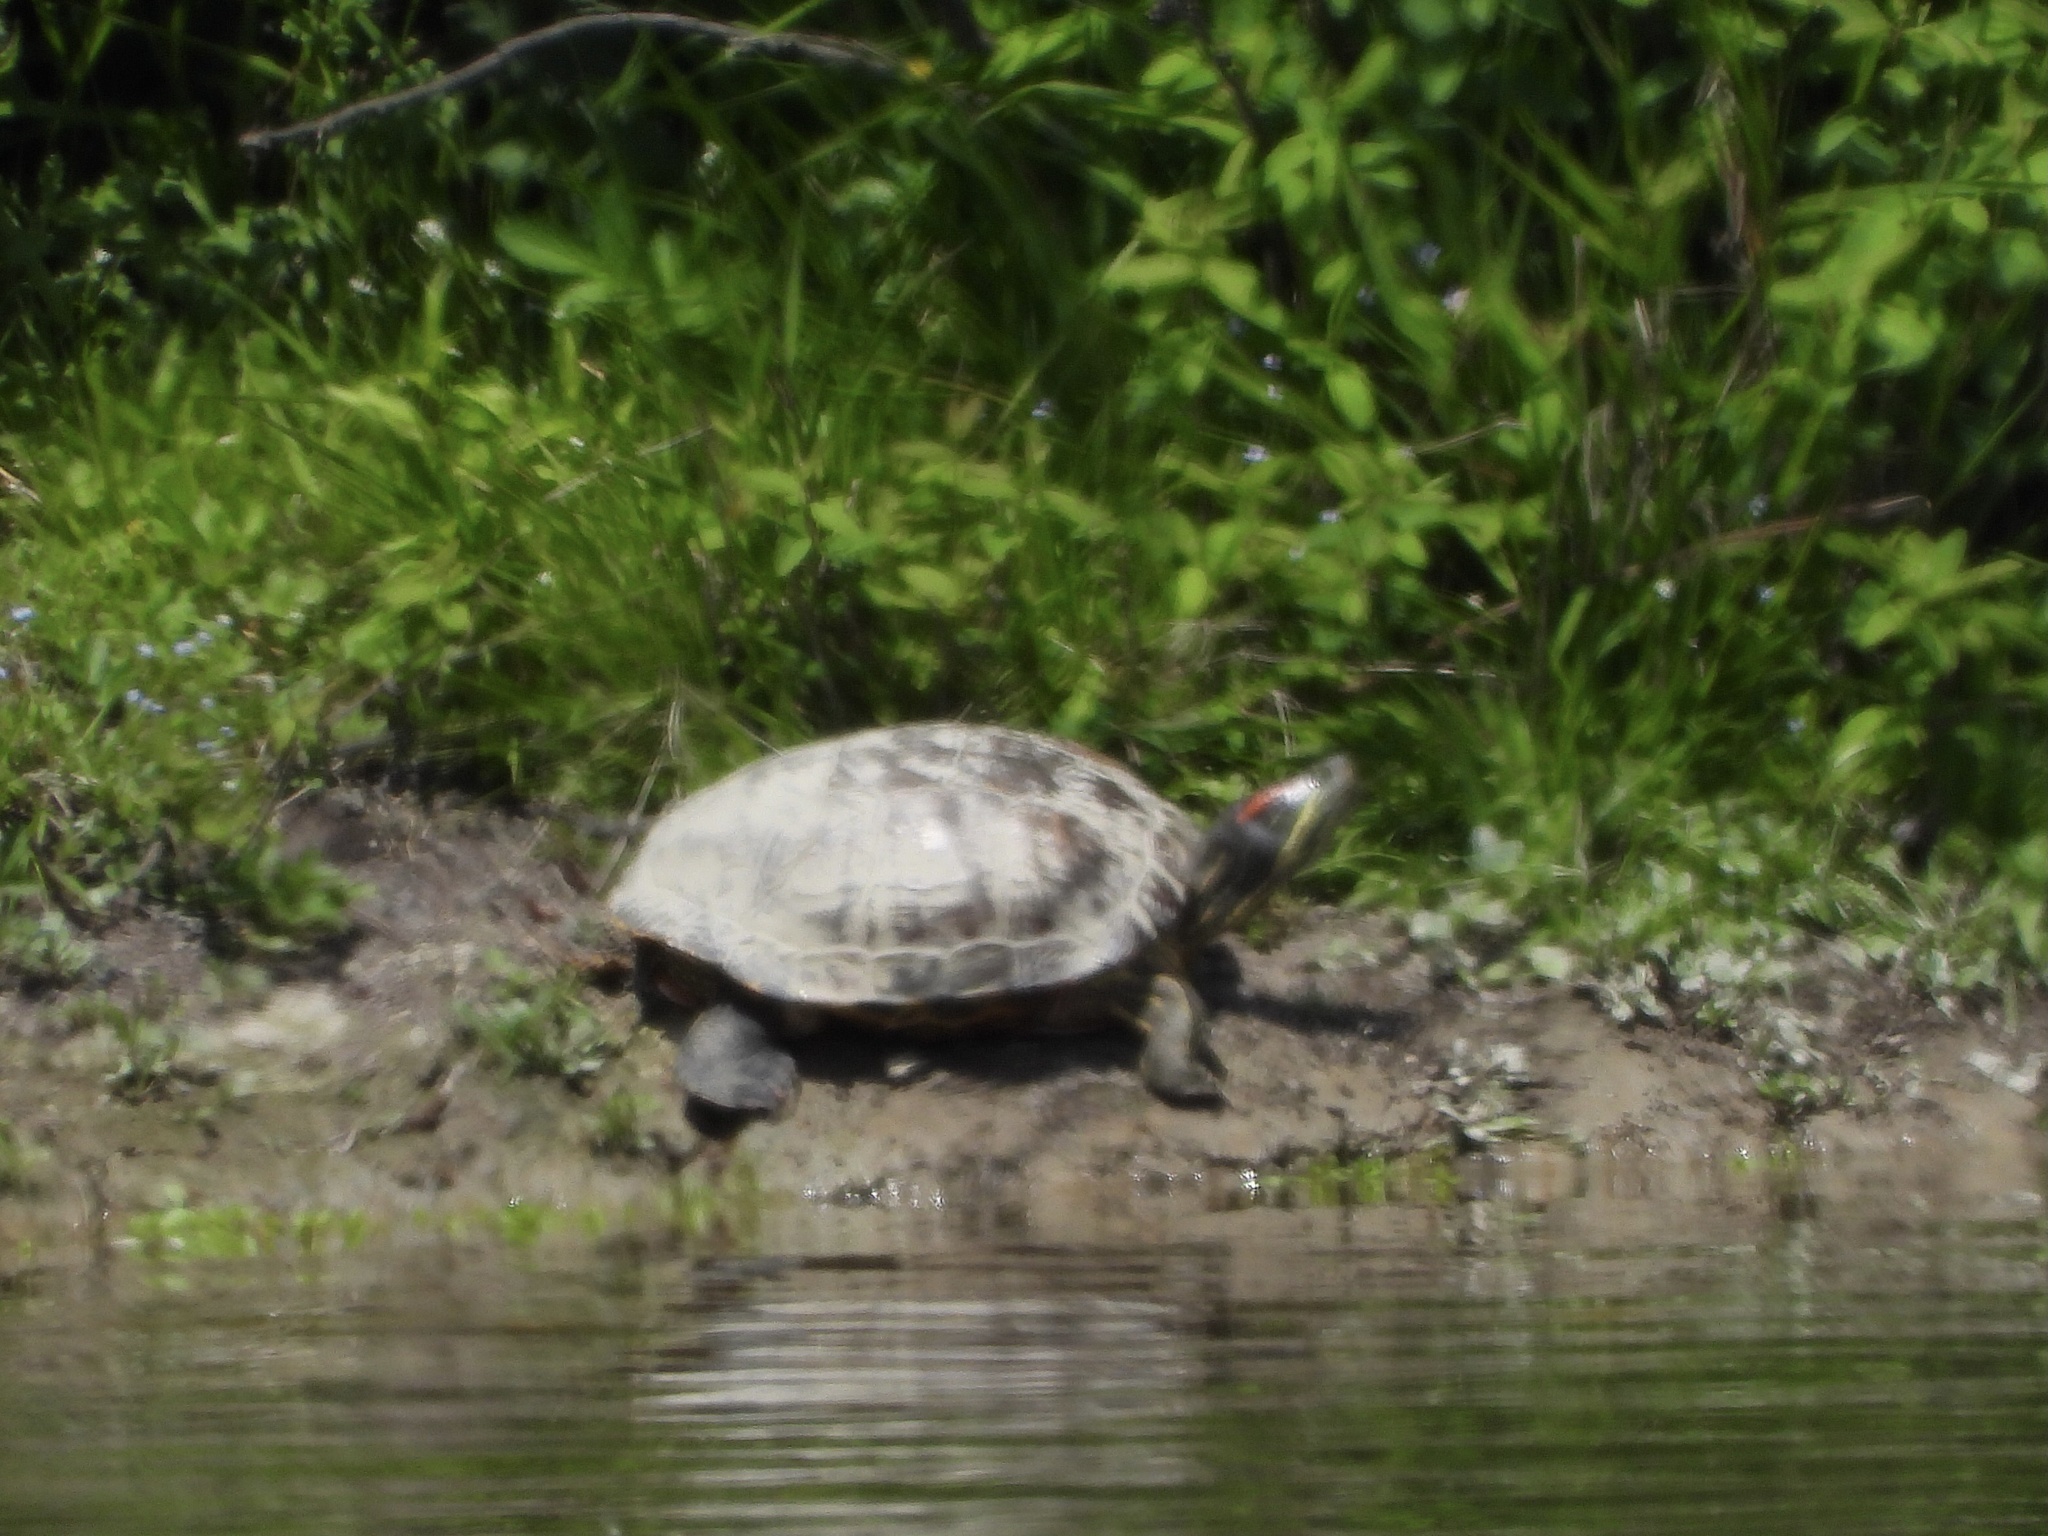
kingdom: Animalia
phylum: Chordata
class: Testudines
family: Emydidae
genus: Trachemys
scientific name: Trachemys scripta
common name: Slider
